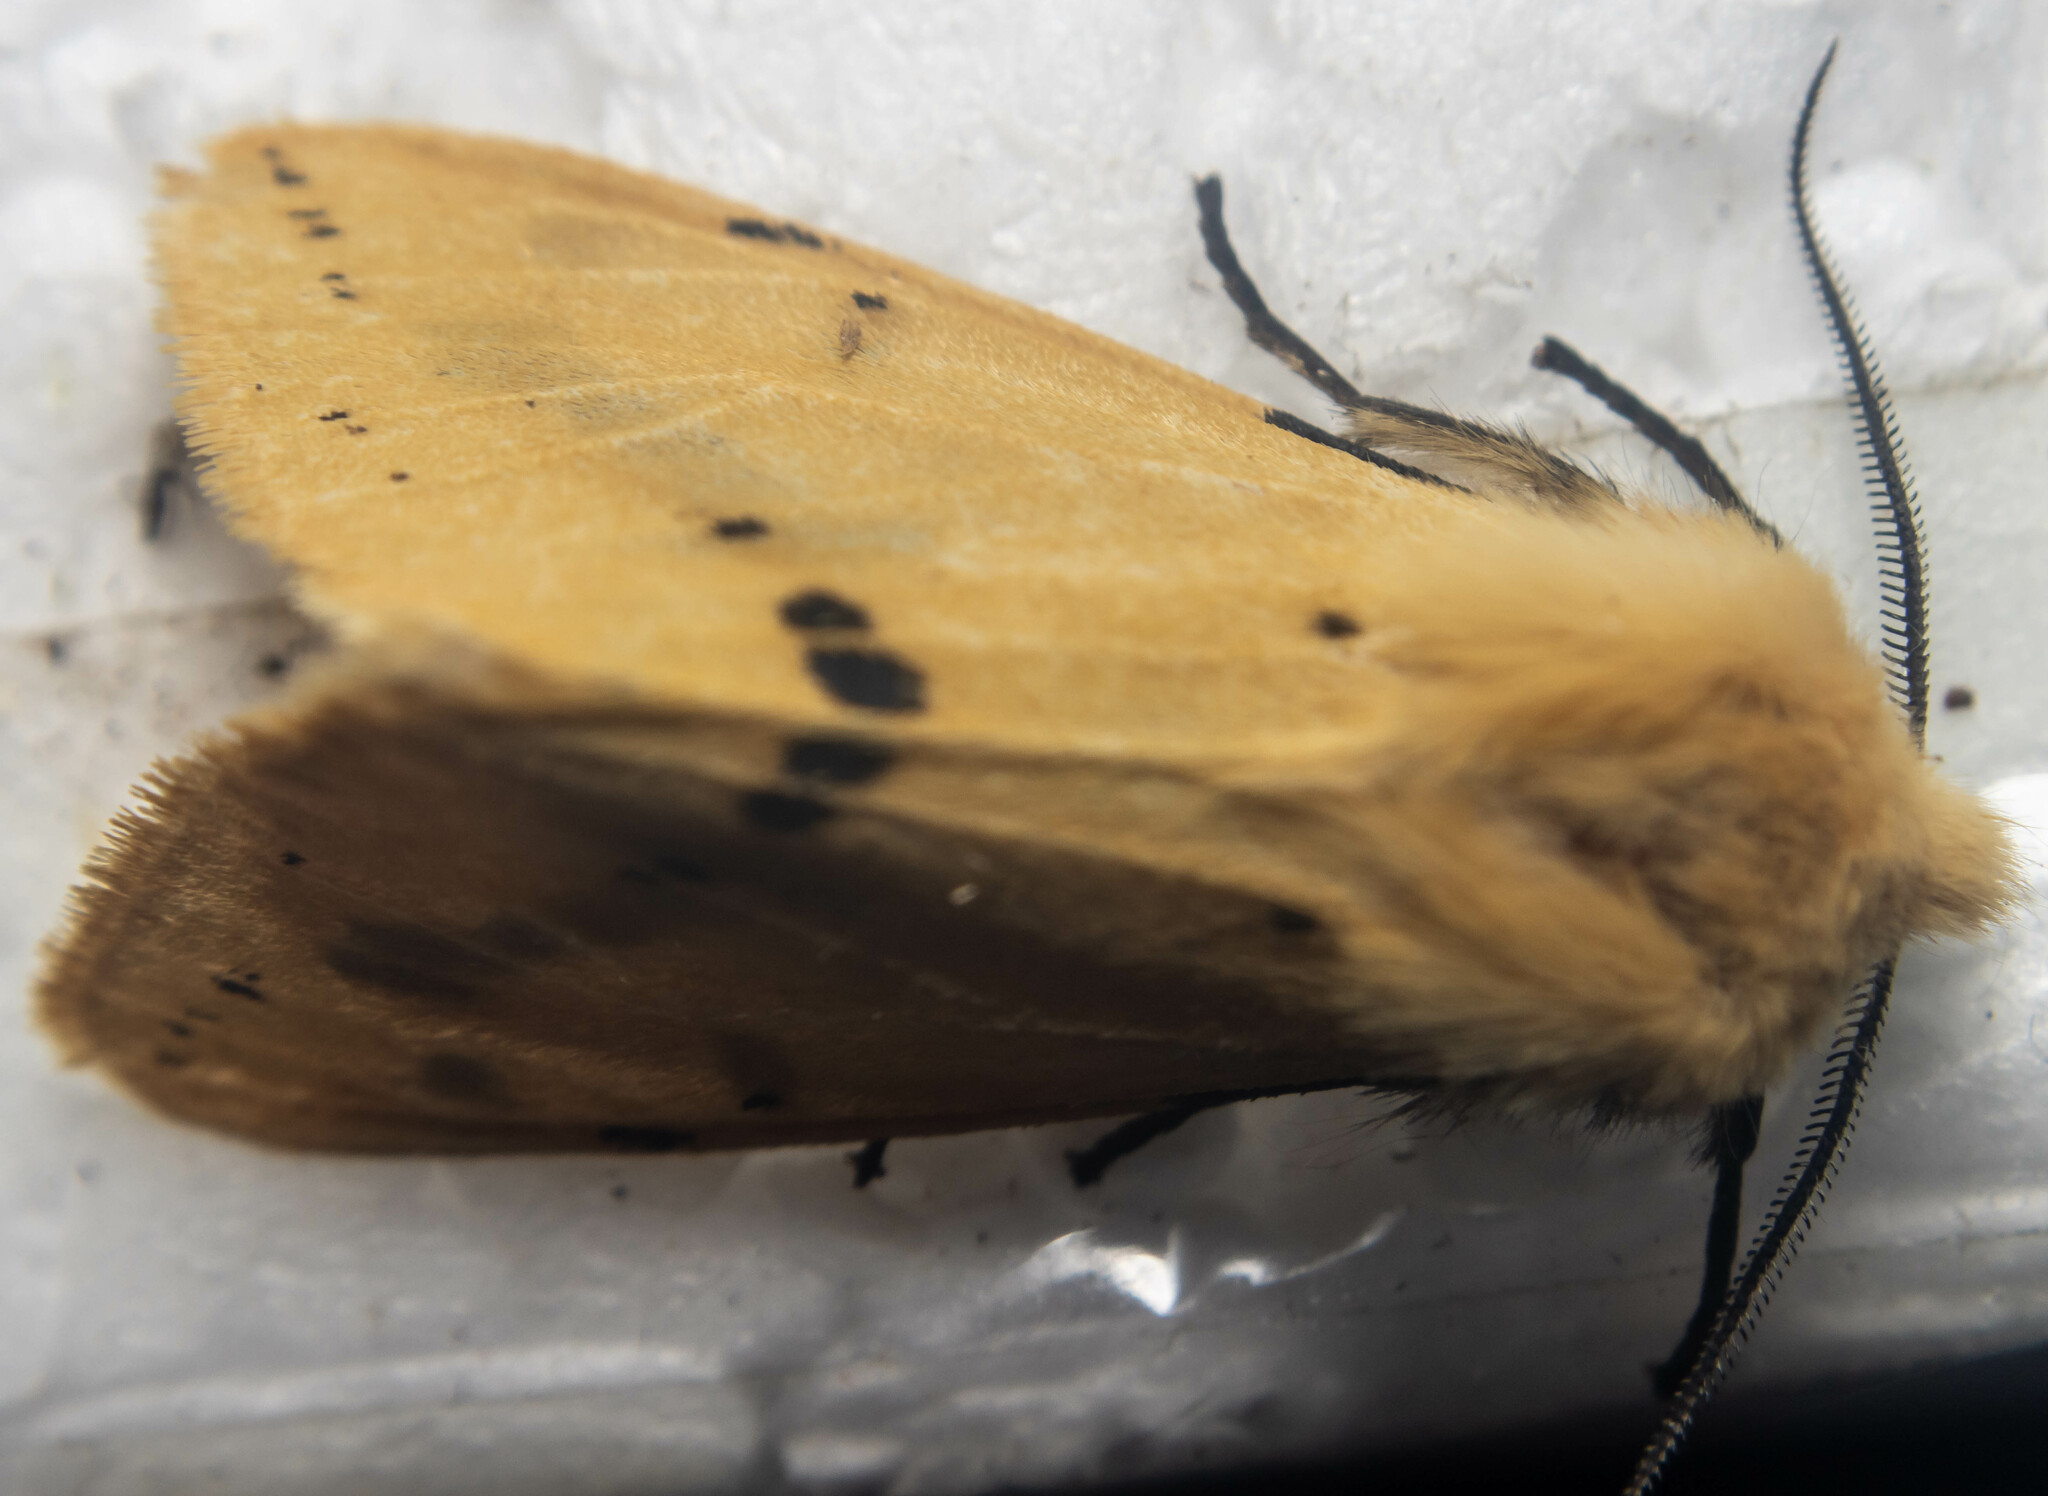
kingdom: Animalia
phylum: Arthropoda
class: Insecta
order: Lepidoptera
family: Erebidae
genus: Spilarctia
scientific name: Spilarctia lutea
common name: Buff ermine
